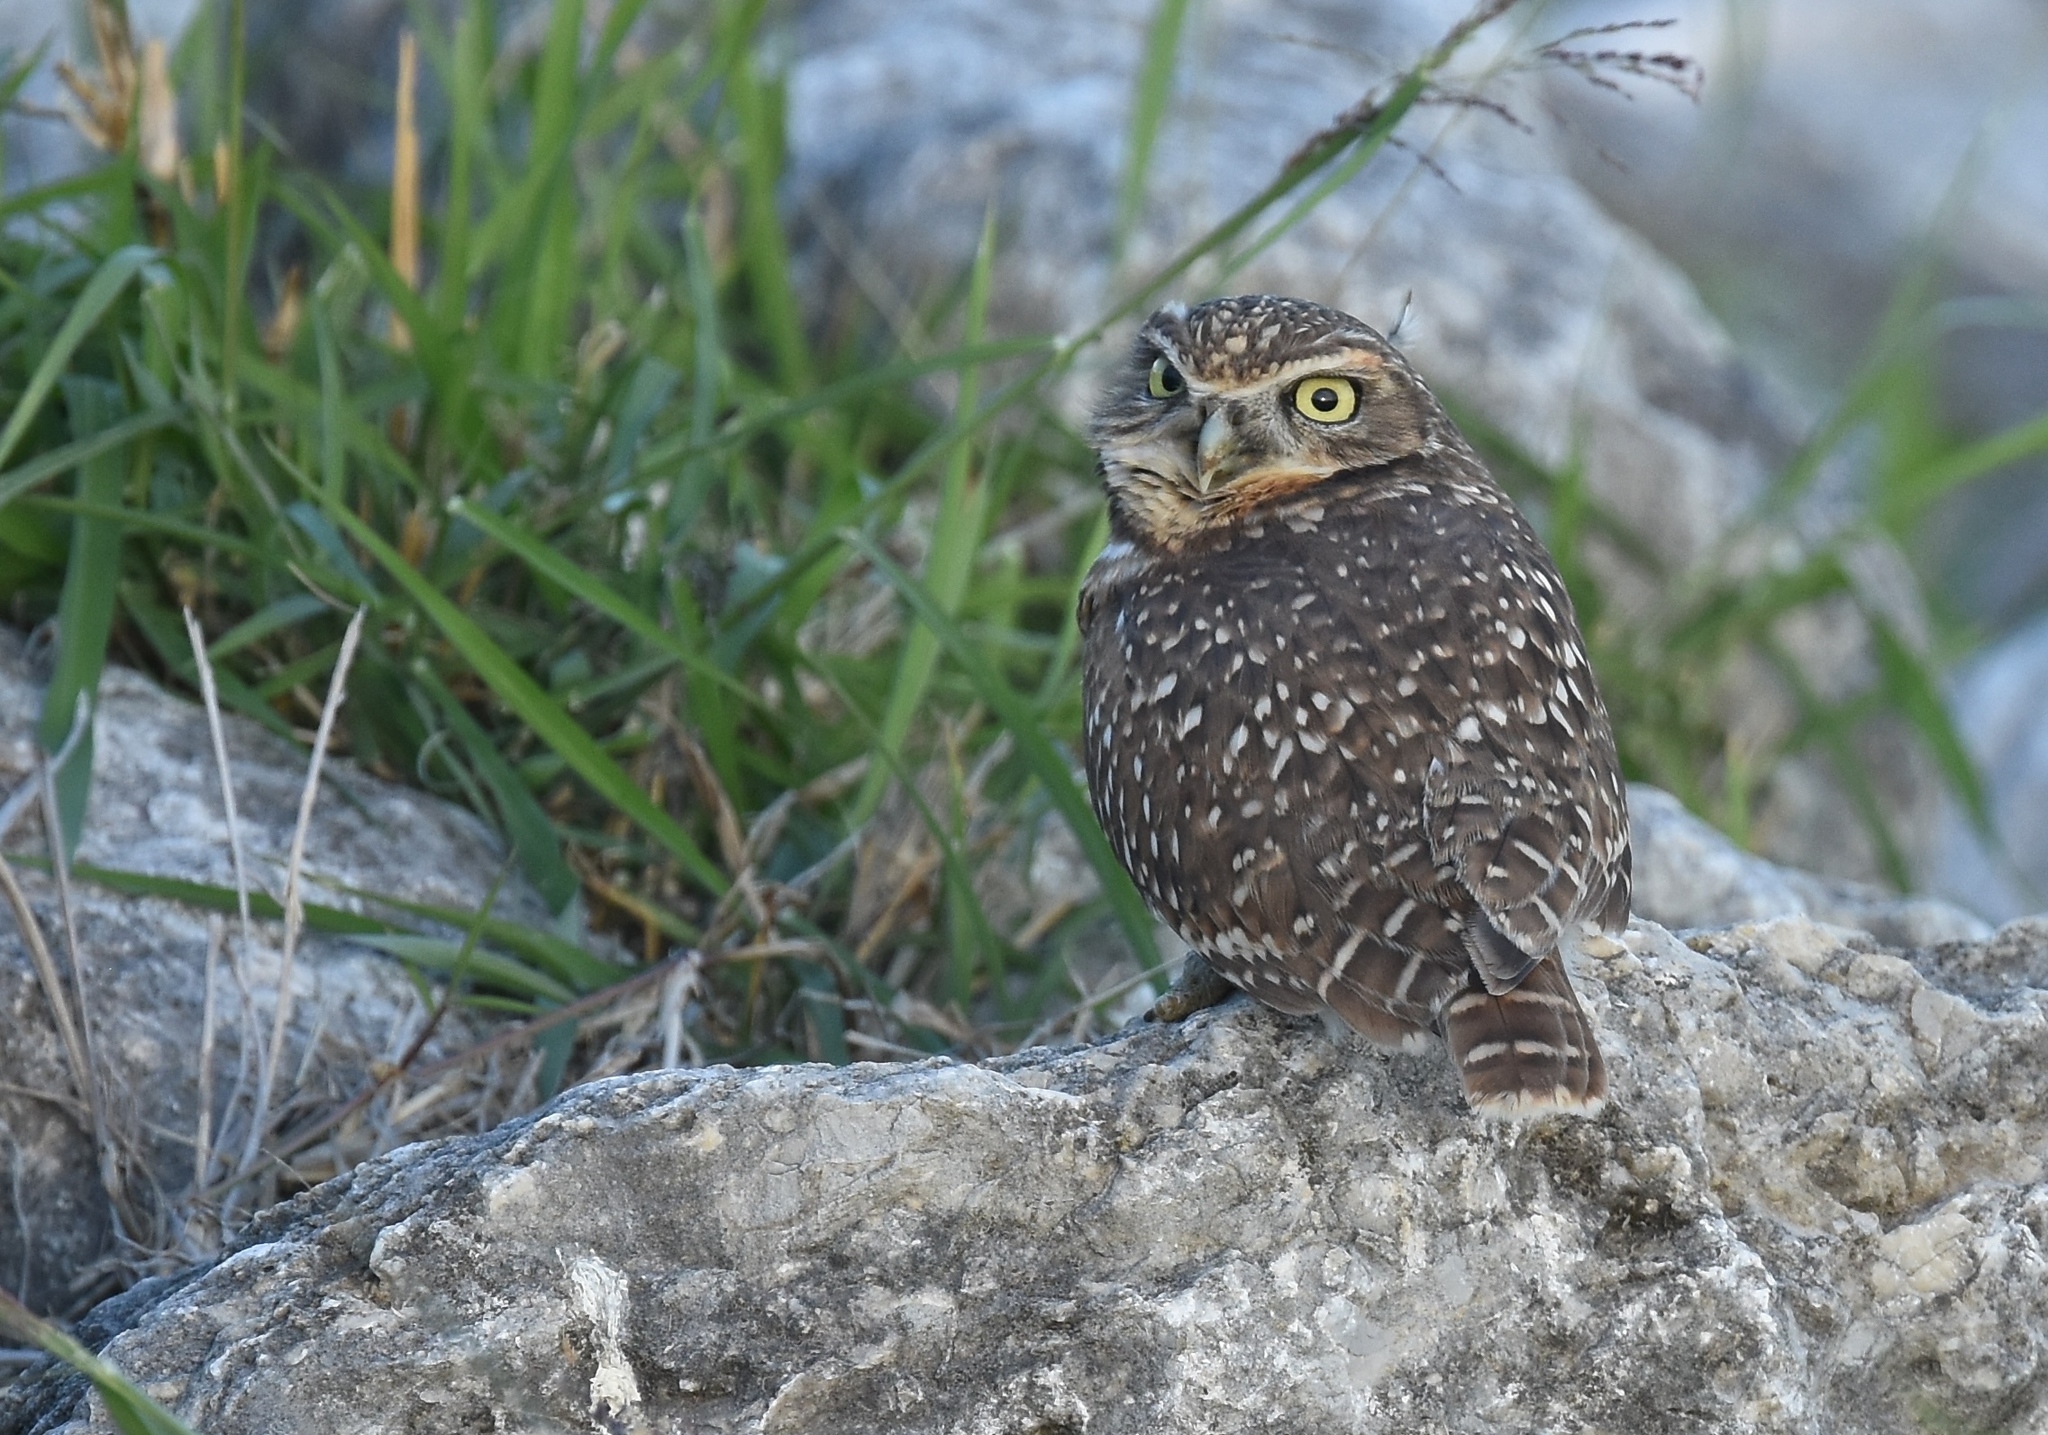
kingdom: Animalia
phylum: Chordata
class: Aves
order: Strigiformes
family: Strigidae
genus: Athene
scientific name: Athene cunicularia
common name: Burrowing owl
